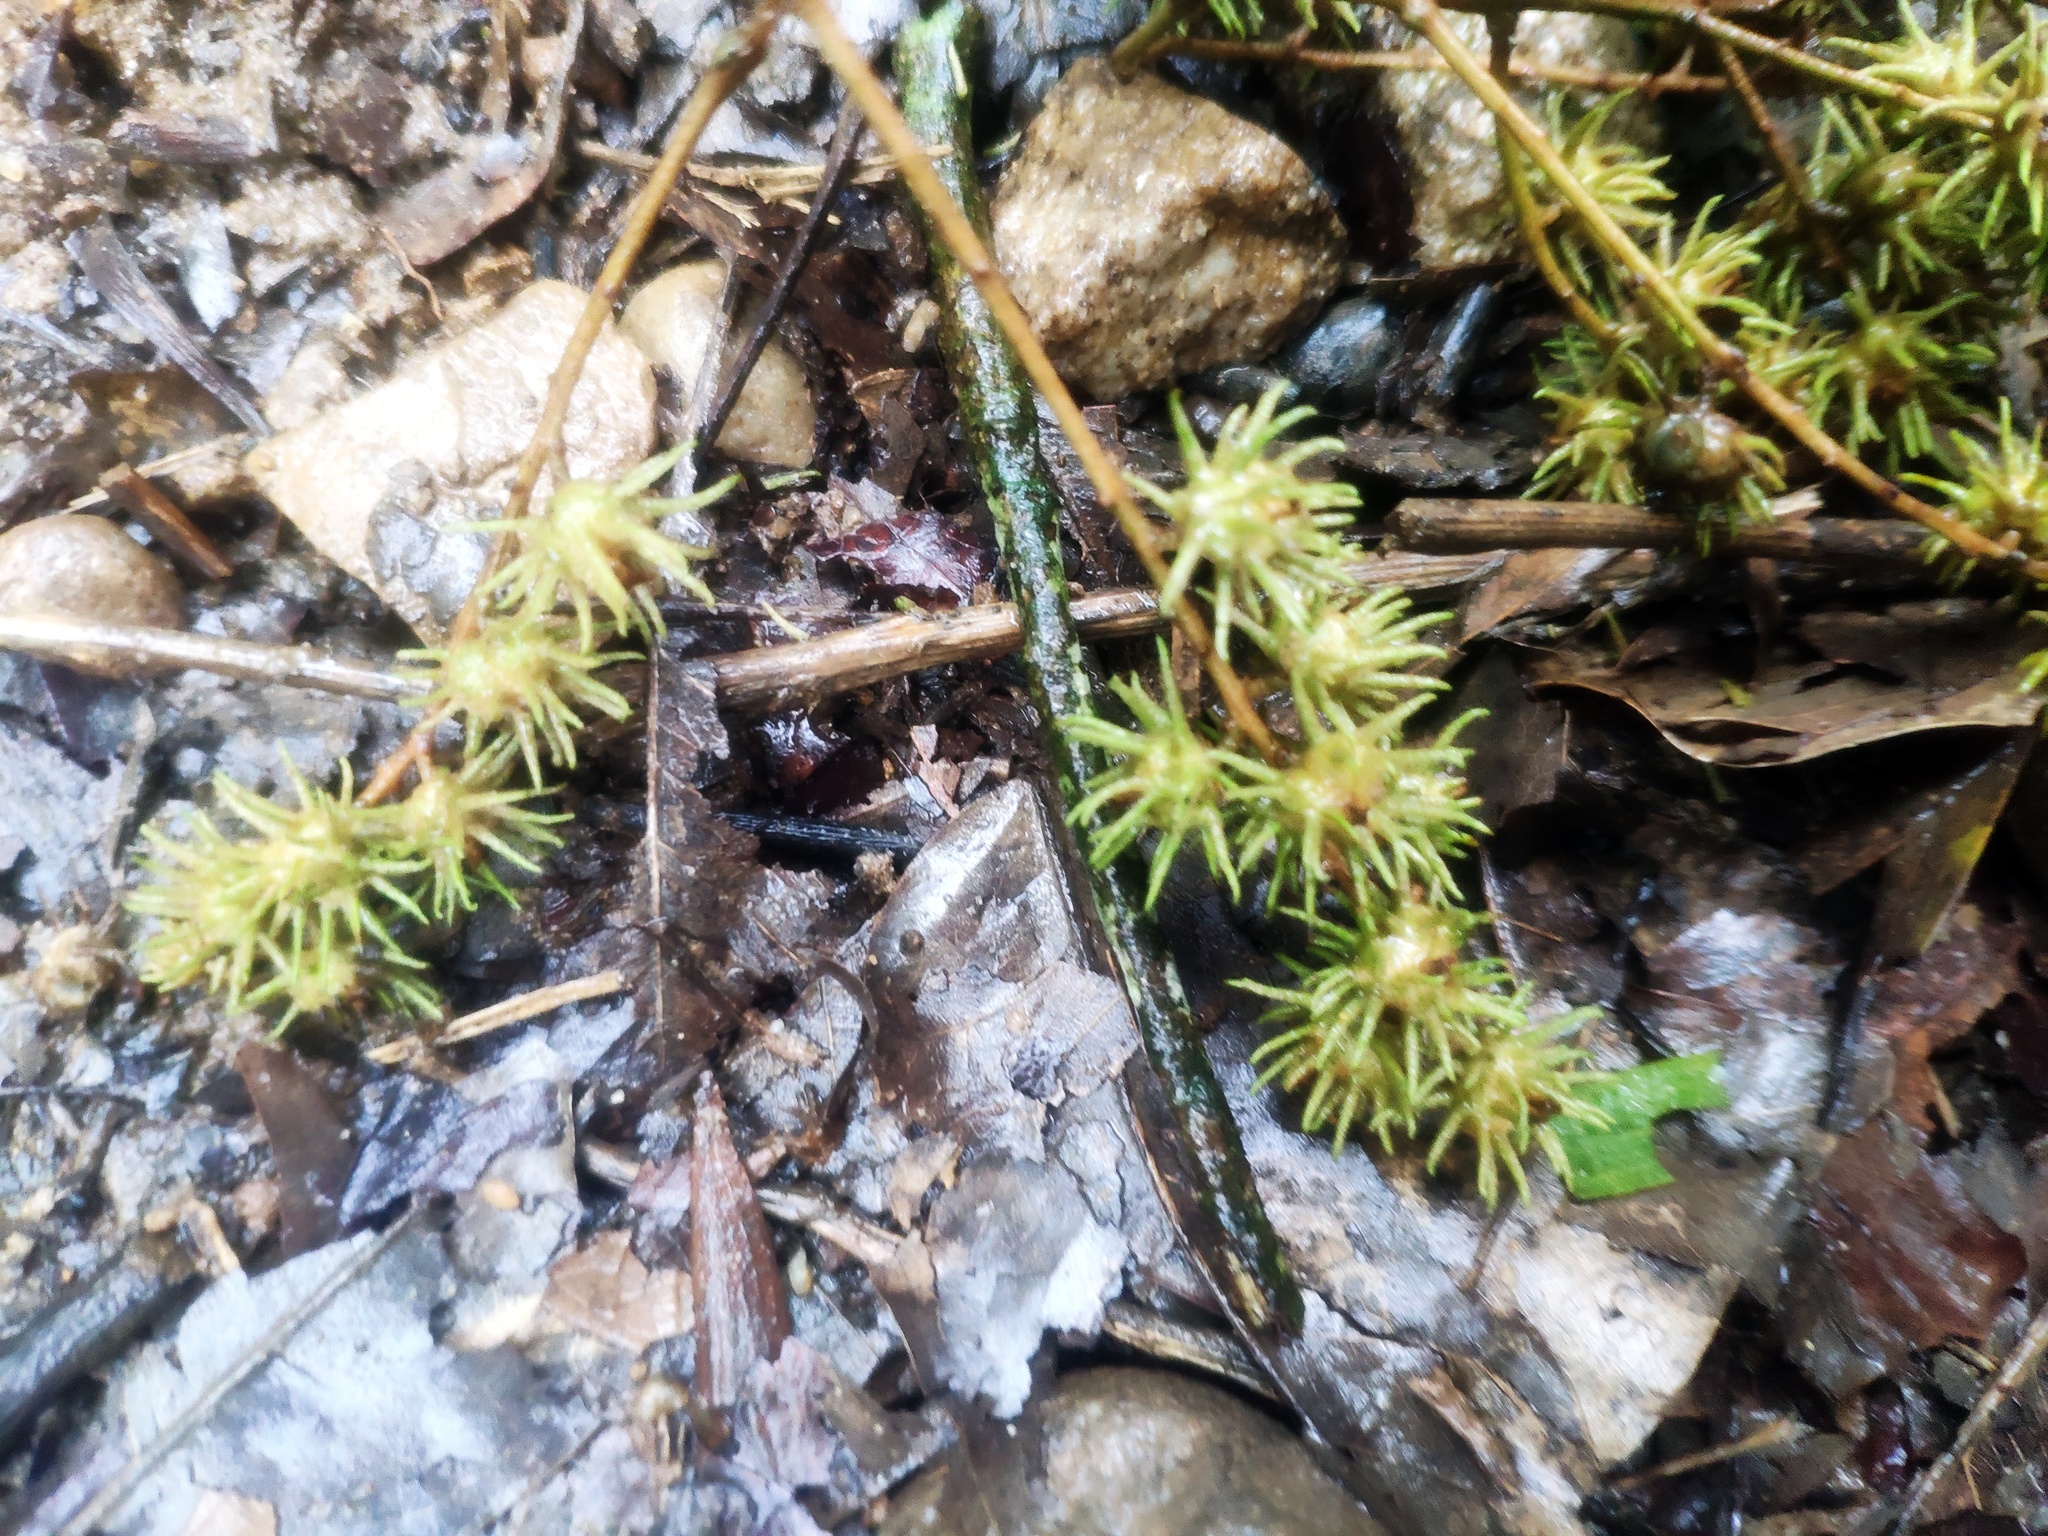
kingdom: Plantae
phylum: Tracheophyta
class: Magnoliopsida
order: Malpighiales
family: Euphorbiaceae
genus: Mallotus
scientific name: Mallotus paniculatus
